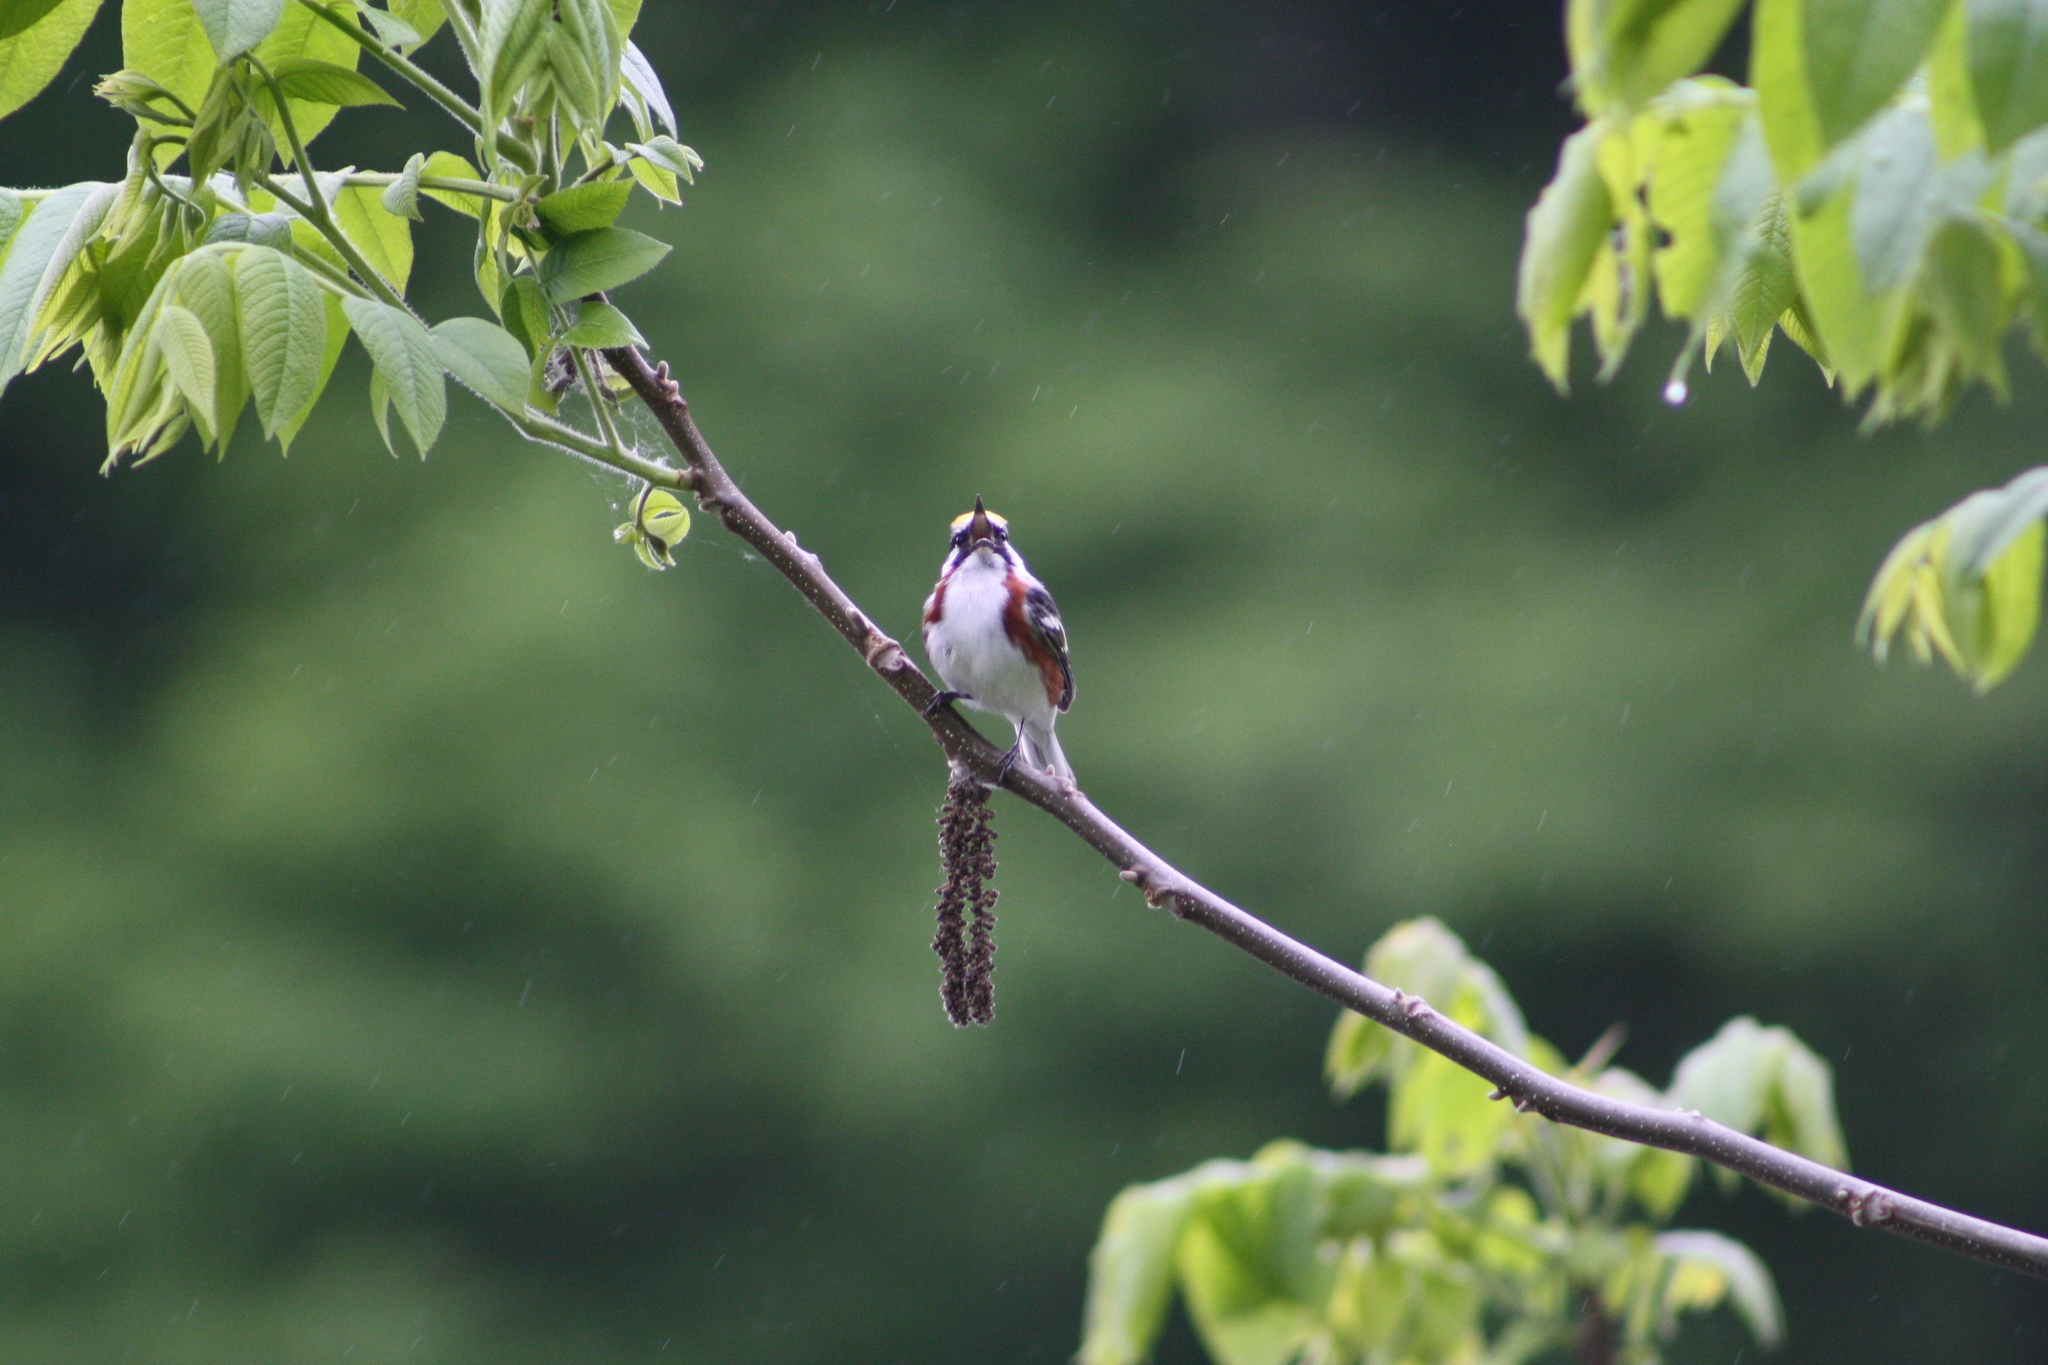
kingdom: Animalia
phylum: Chordata
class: Aves
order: Passeriformes
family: Parulidae
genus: Setophaga
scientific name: Setophaga pensylvanica
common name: Chestnut-sided warbler
